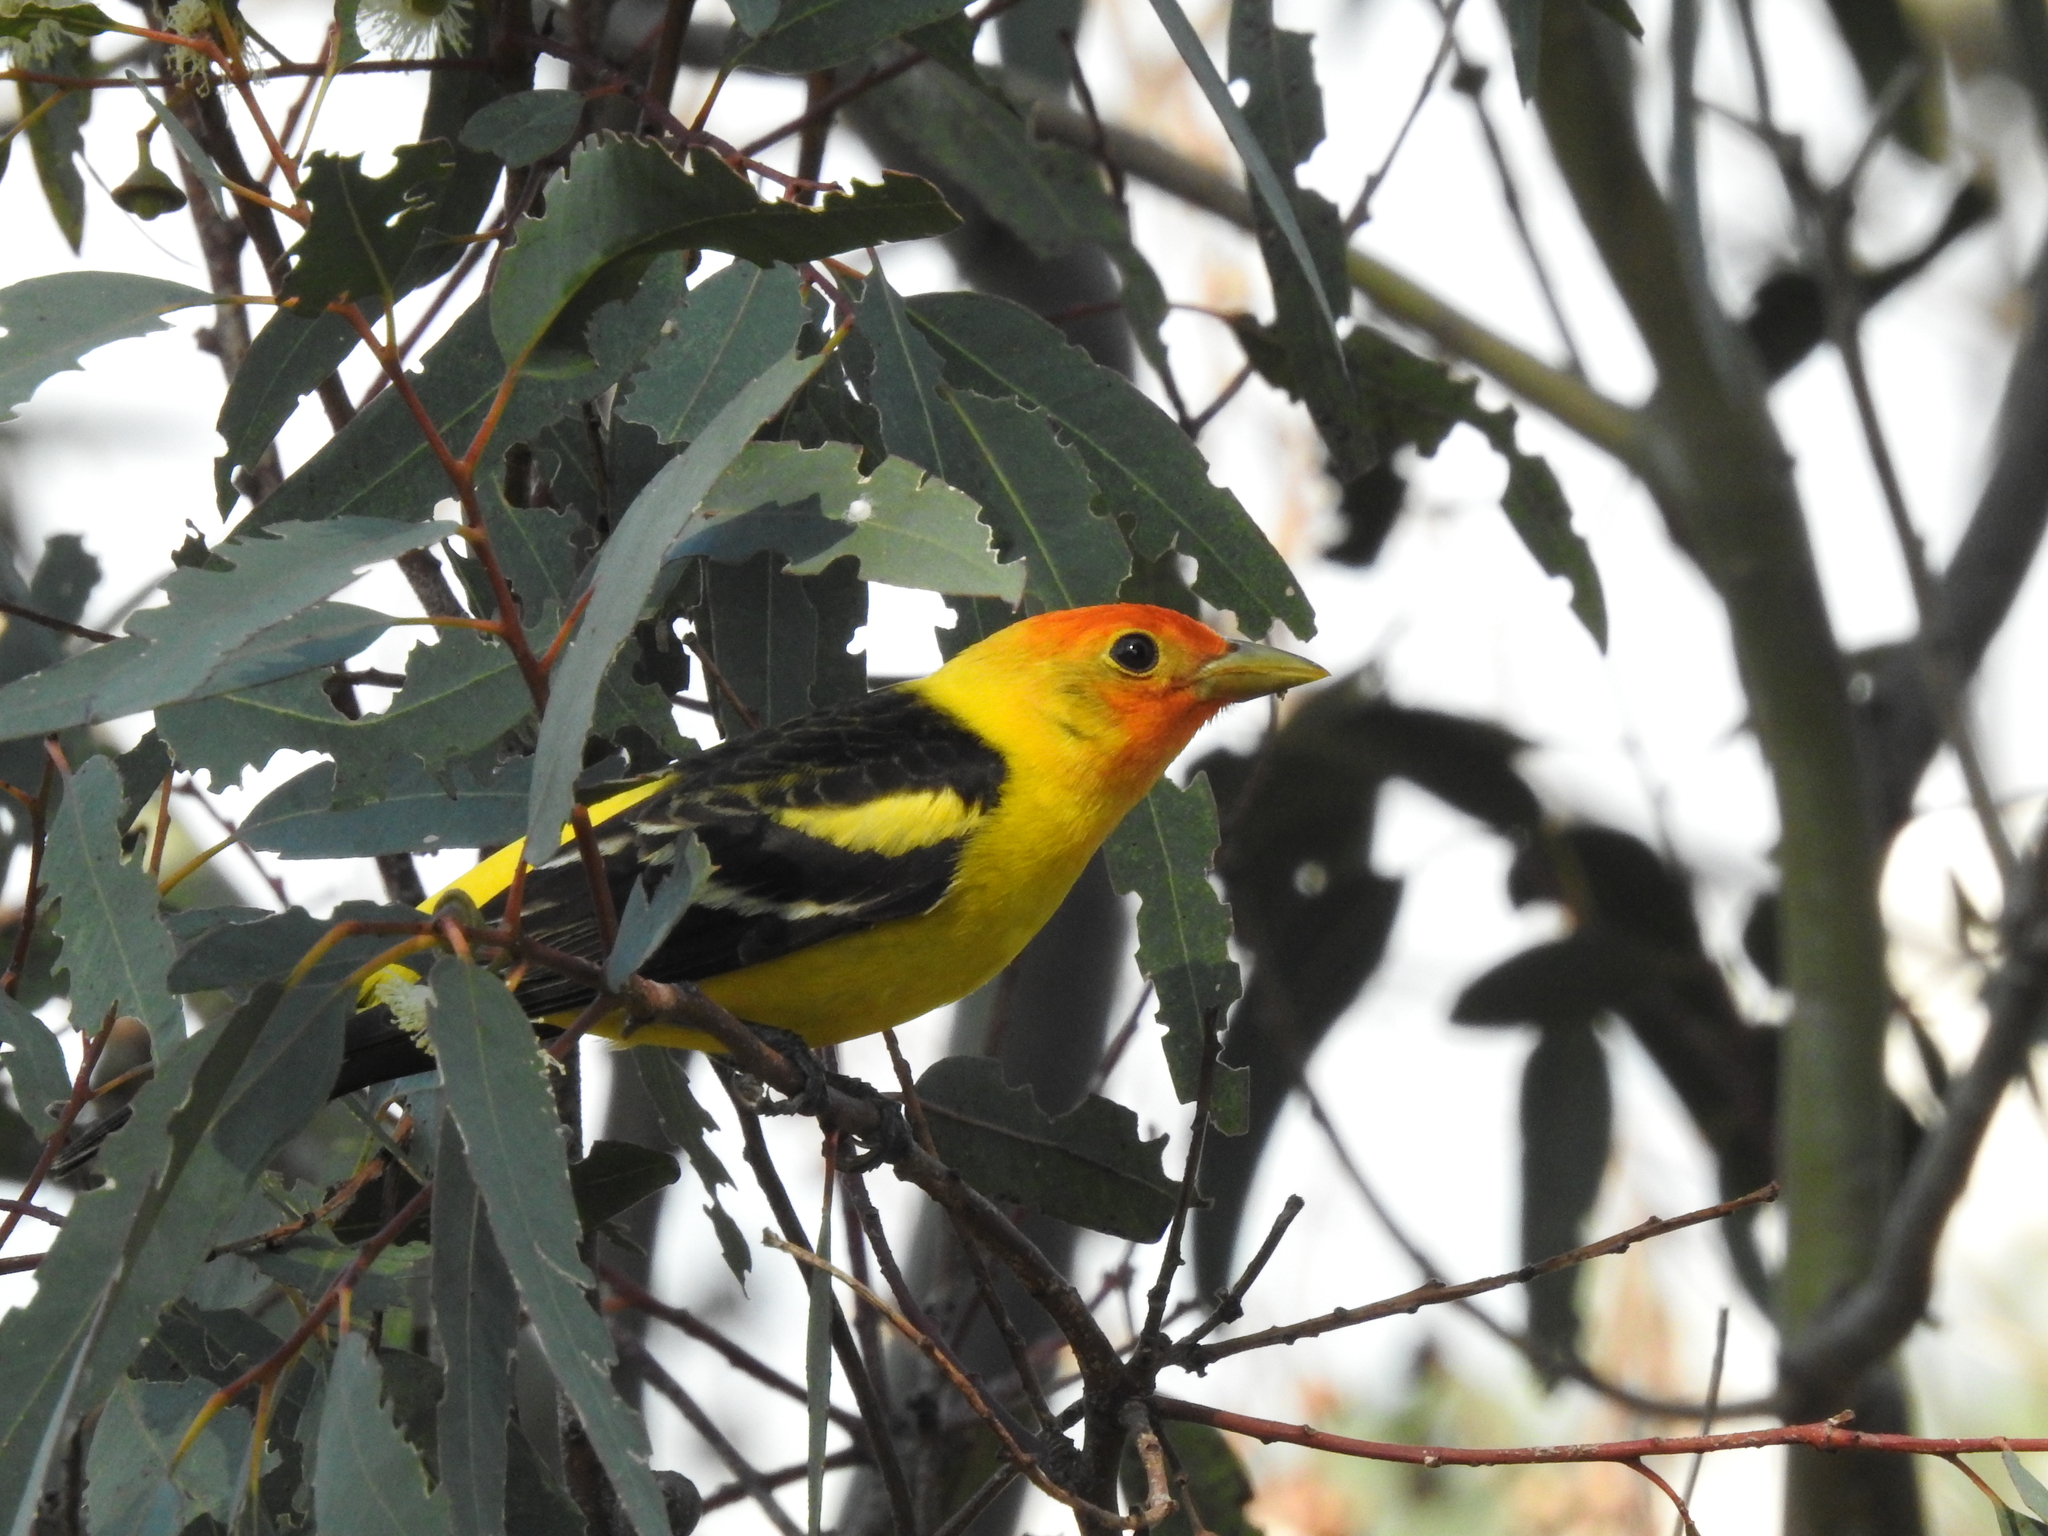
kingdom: Animalia
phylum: Chordata
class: Aves
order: Passeriformes
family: Cardinalidae
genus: Piranga
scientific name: Piranga ludoviciana
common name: Western tanager
